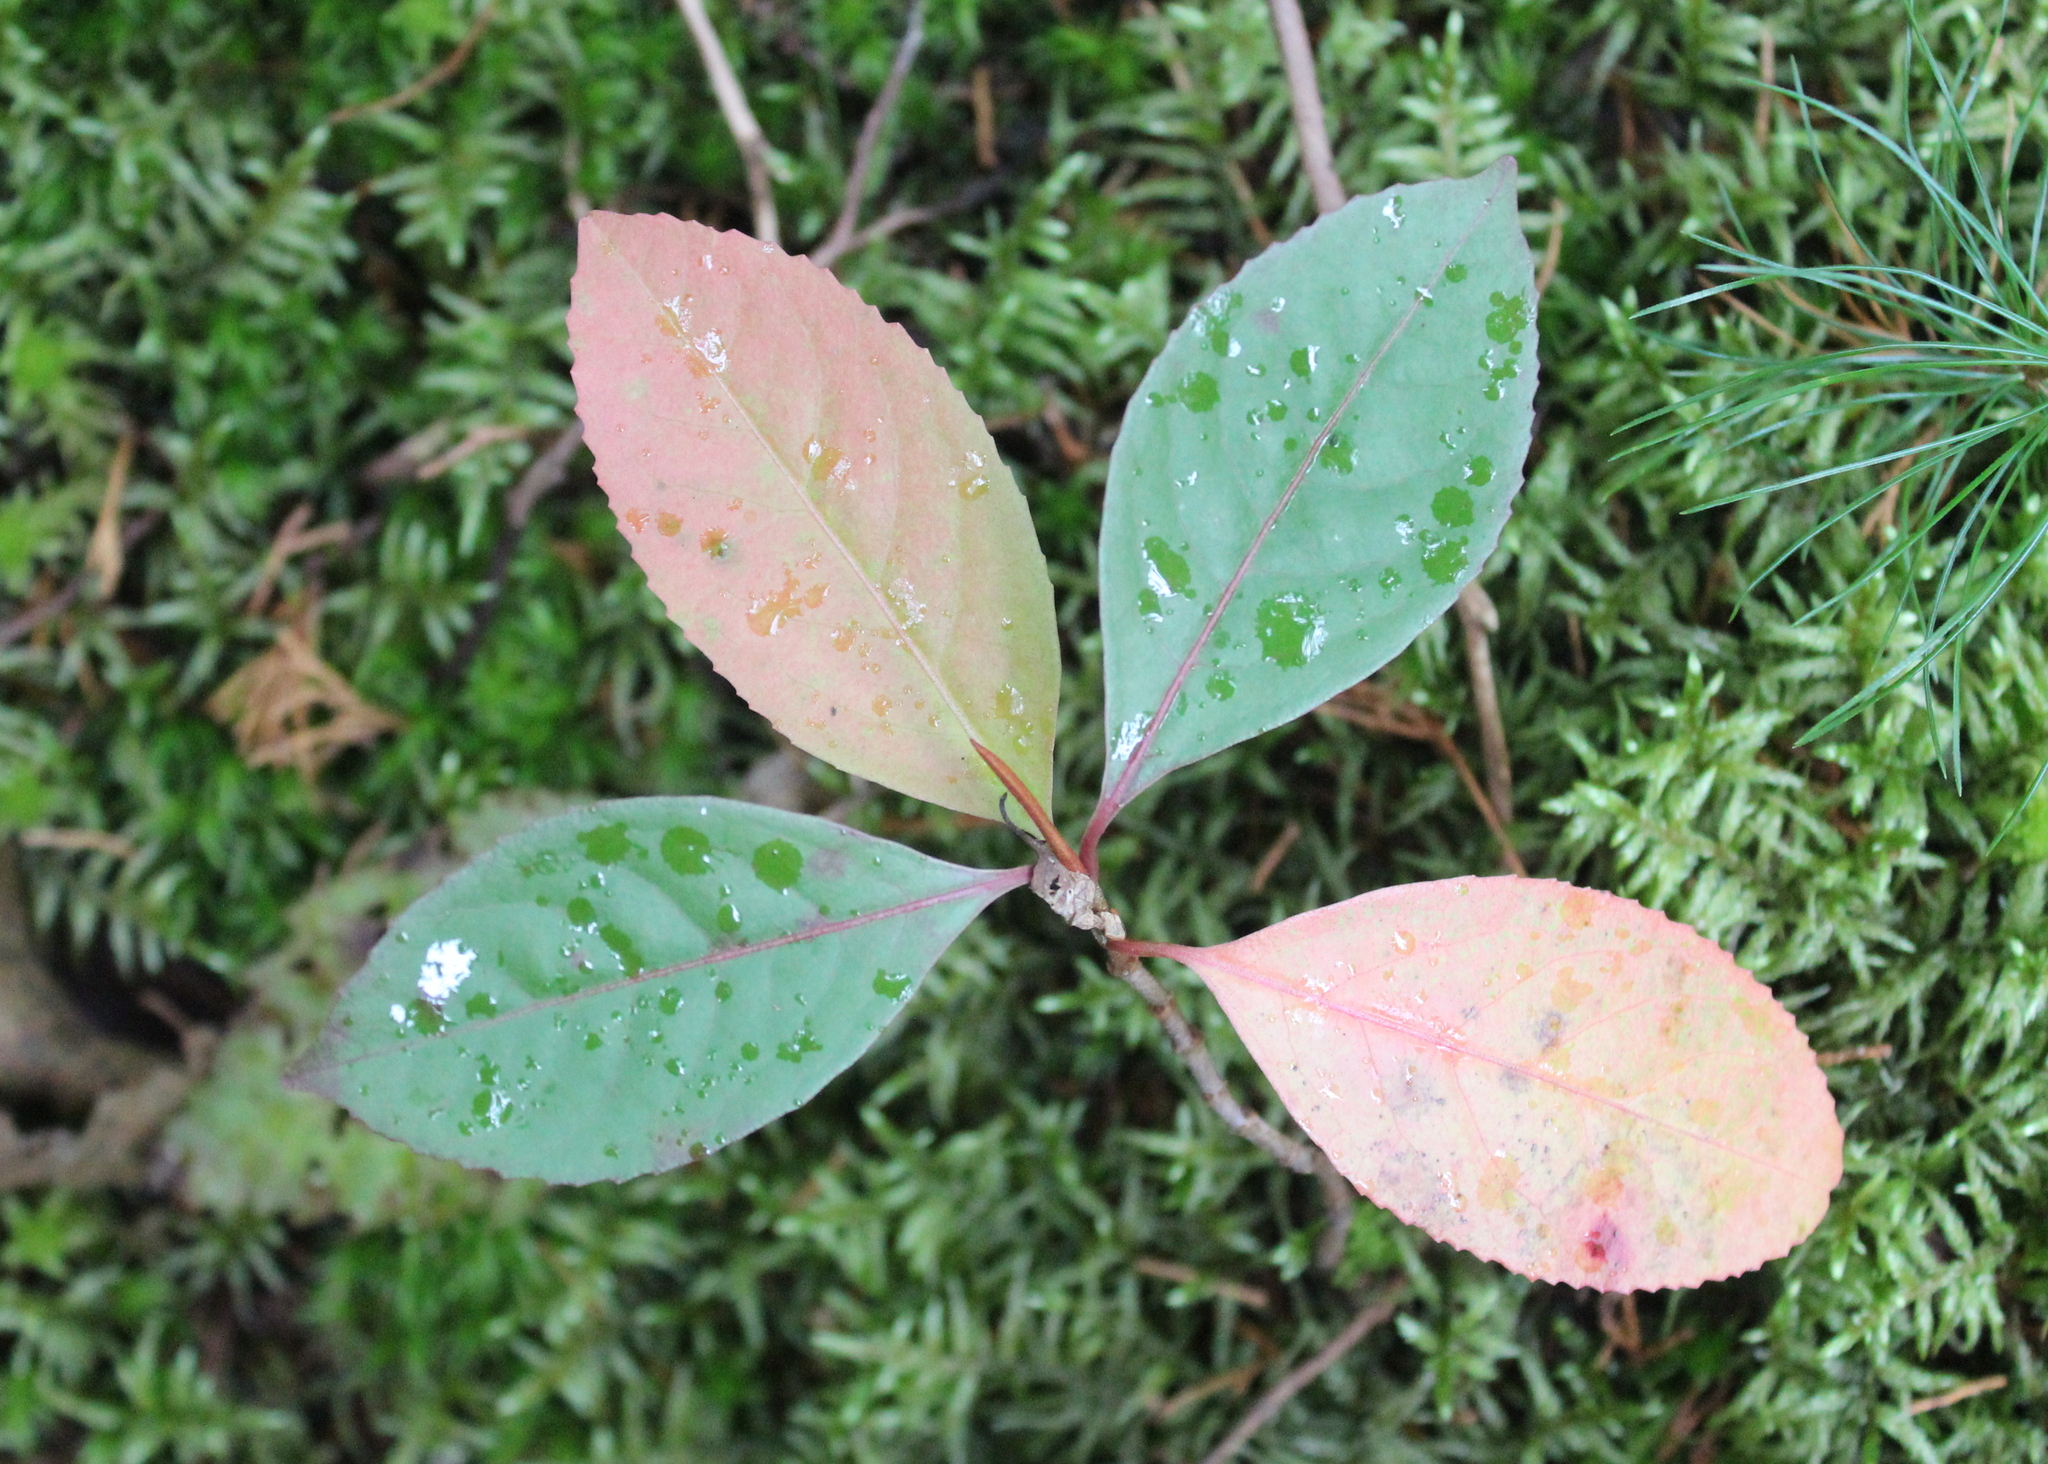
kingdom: Plantae
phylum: Tracheophyta
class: Magnoliopsida
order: Dipsacales
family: Viburnaceae
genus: Viburnum
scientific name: Viburnum cassinoides
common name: Swamp haw
